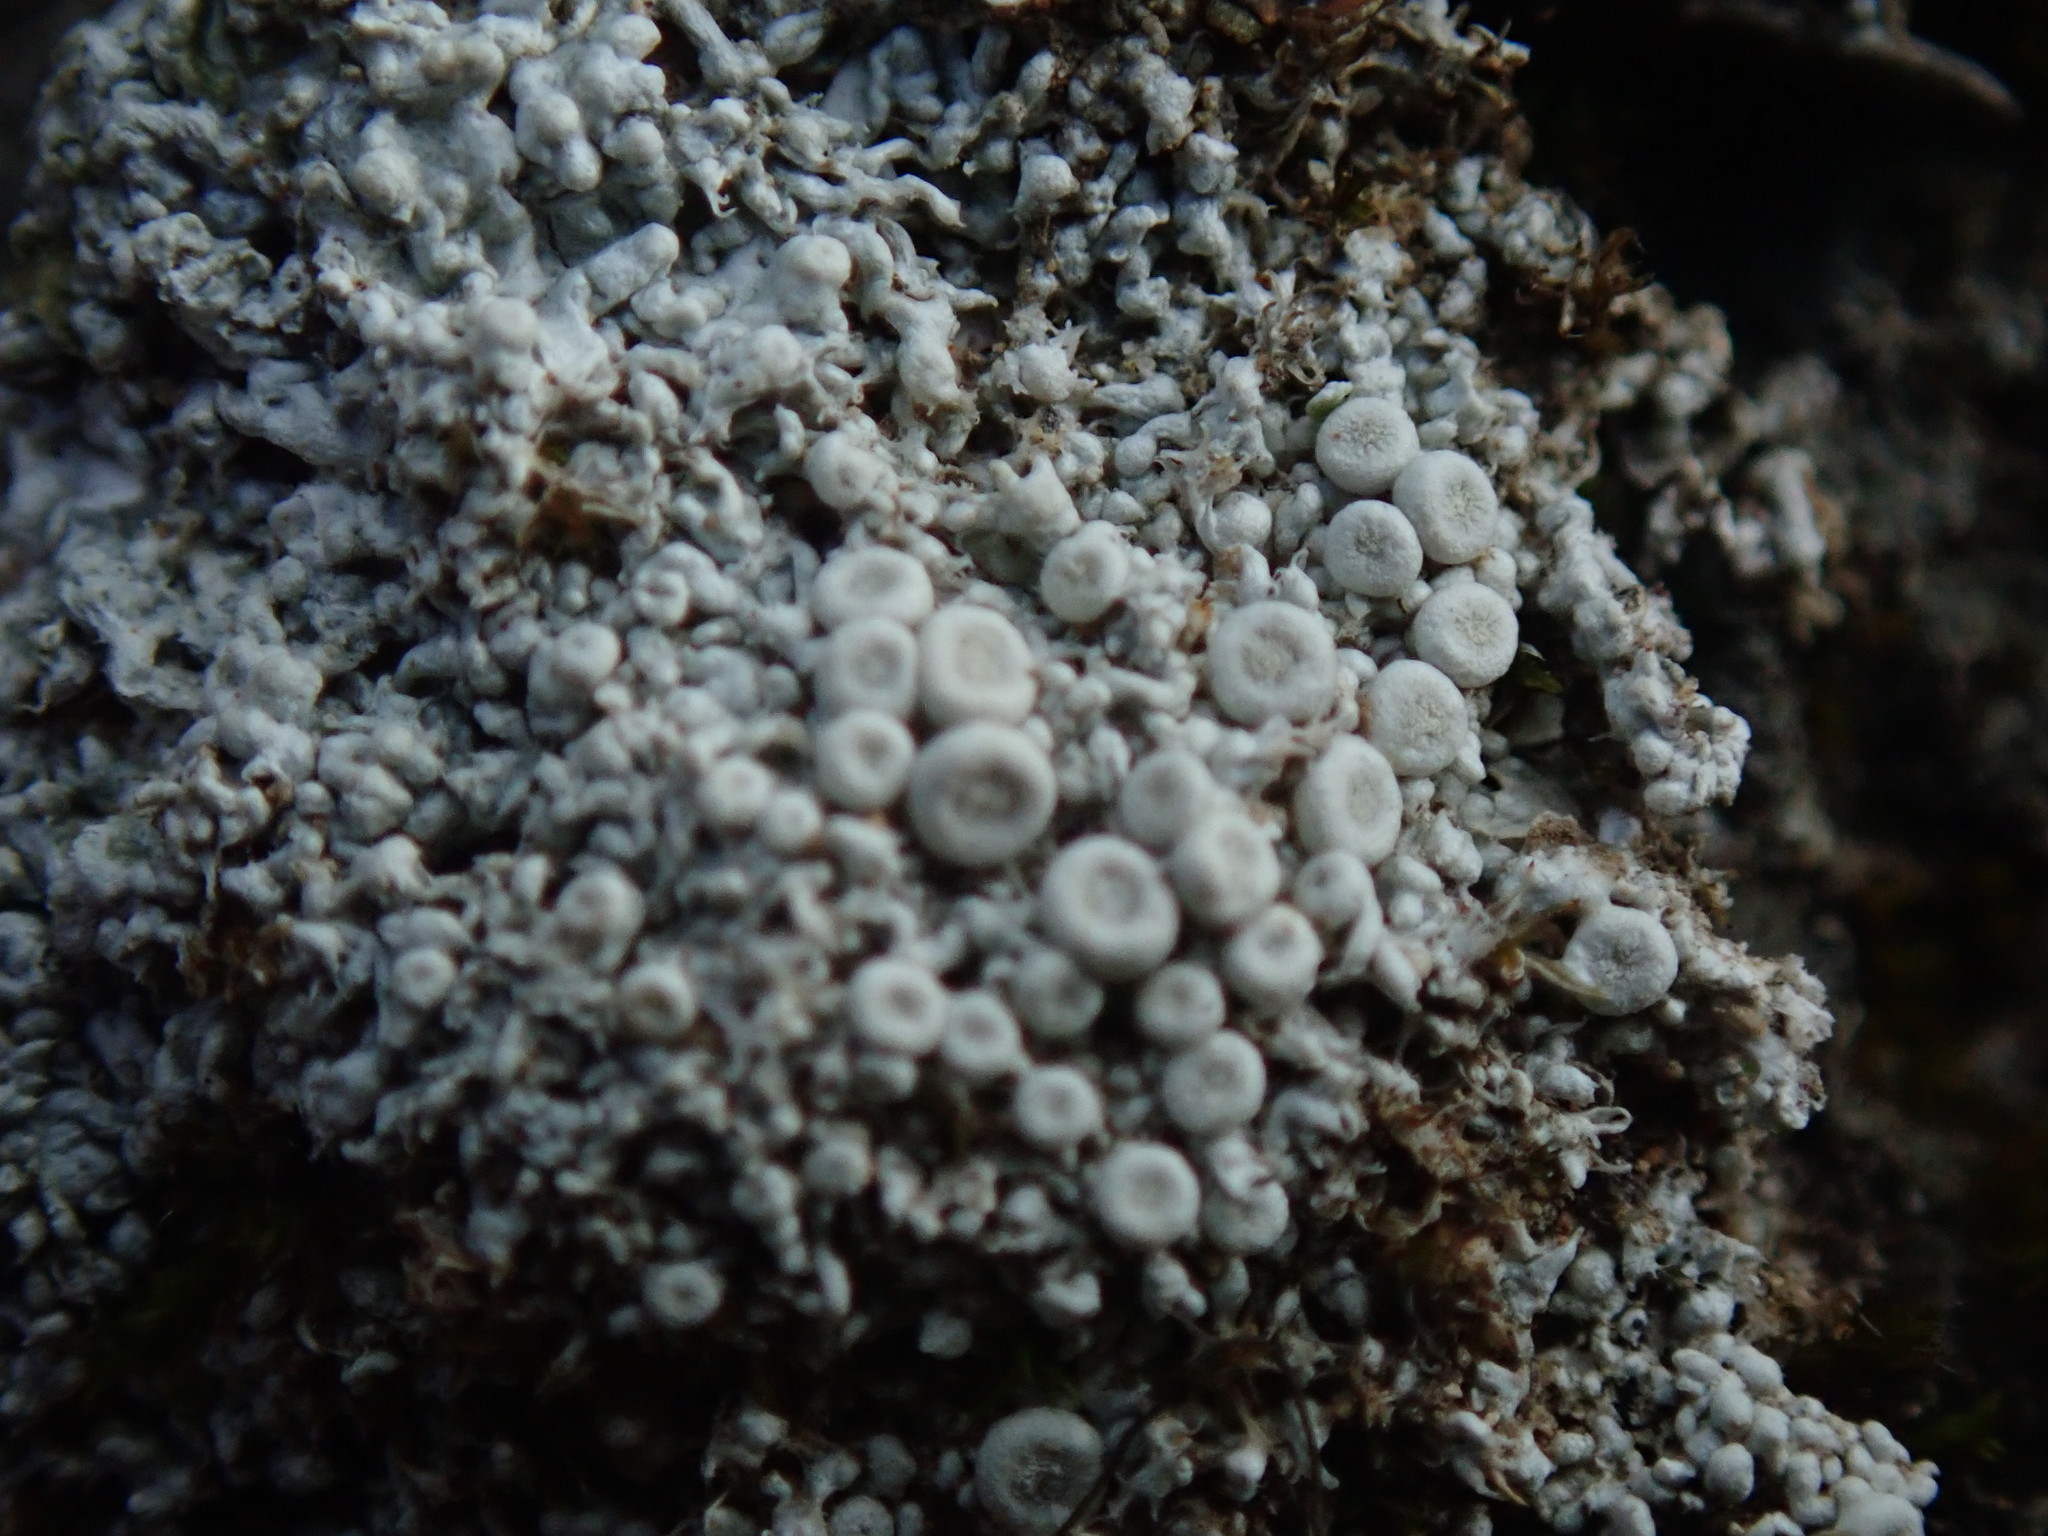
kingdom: Fungi
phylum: Ascomycota
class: Lecanoromycetes
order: Pertusariales
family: Ochrolechiaceae
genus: Ochrolechia
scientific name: Ochrolechia upsaliensis
